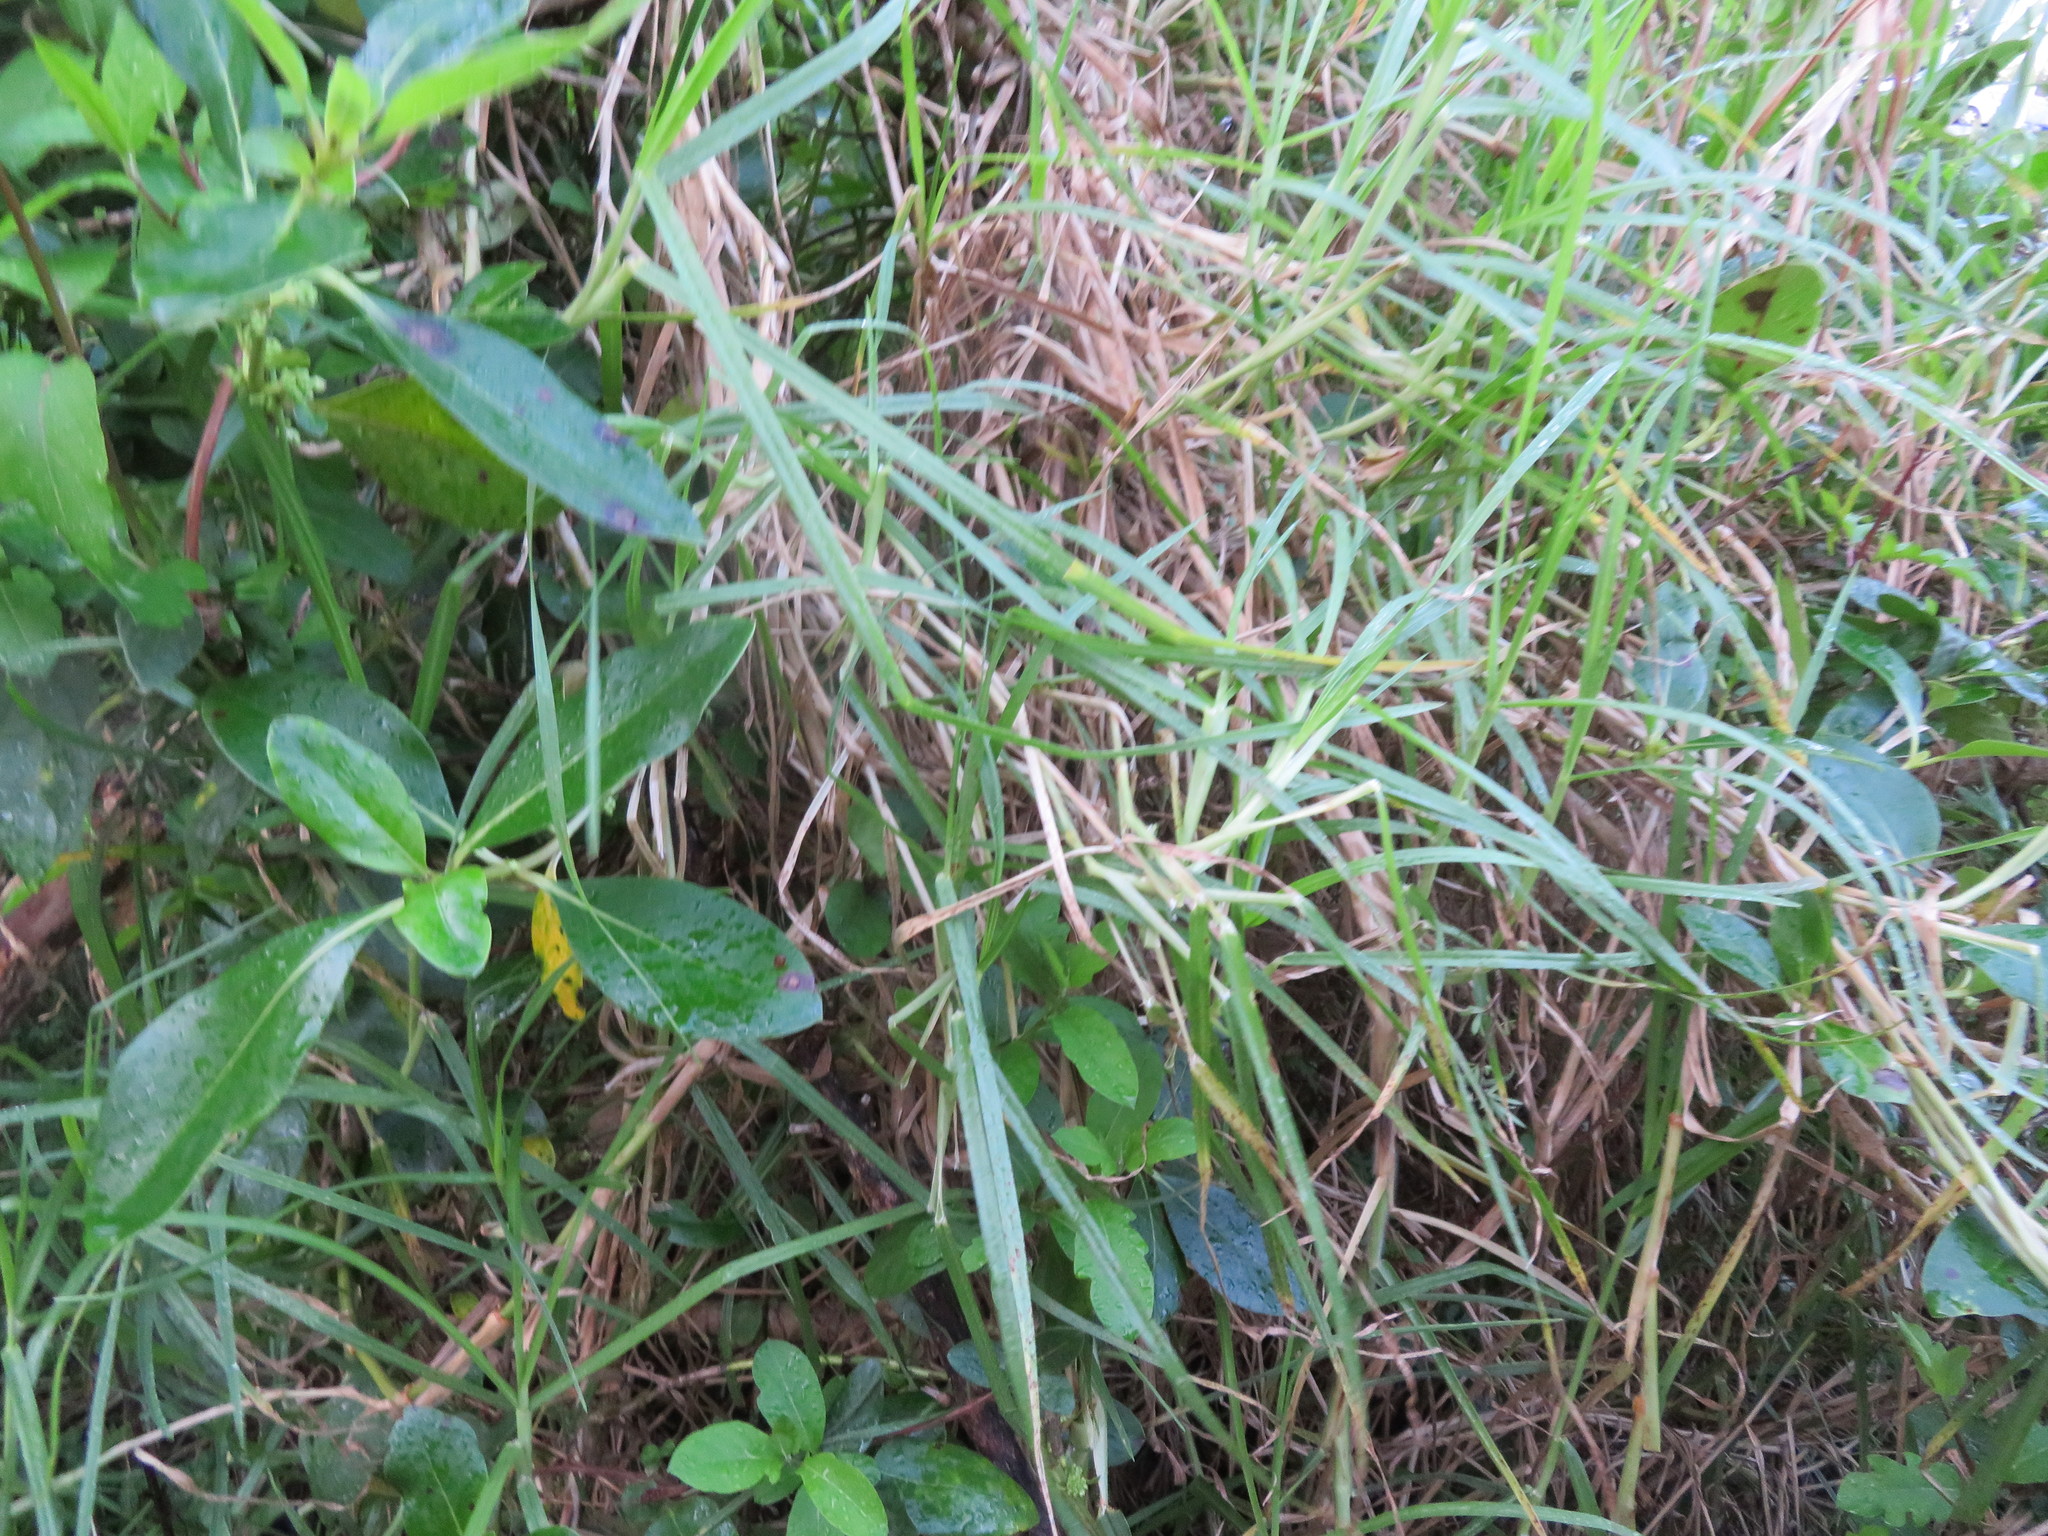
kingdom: Plantae
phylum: Tracheophyta
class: Liliopsida
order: Poales
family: Poaceae
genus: Cenchrus
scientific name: Cenchrus clandestinus
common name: Kikuyugrass
